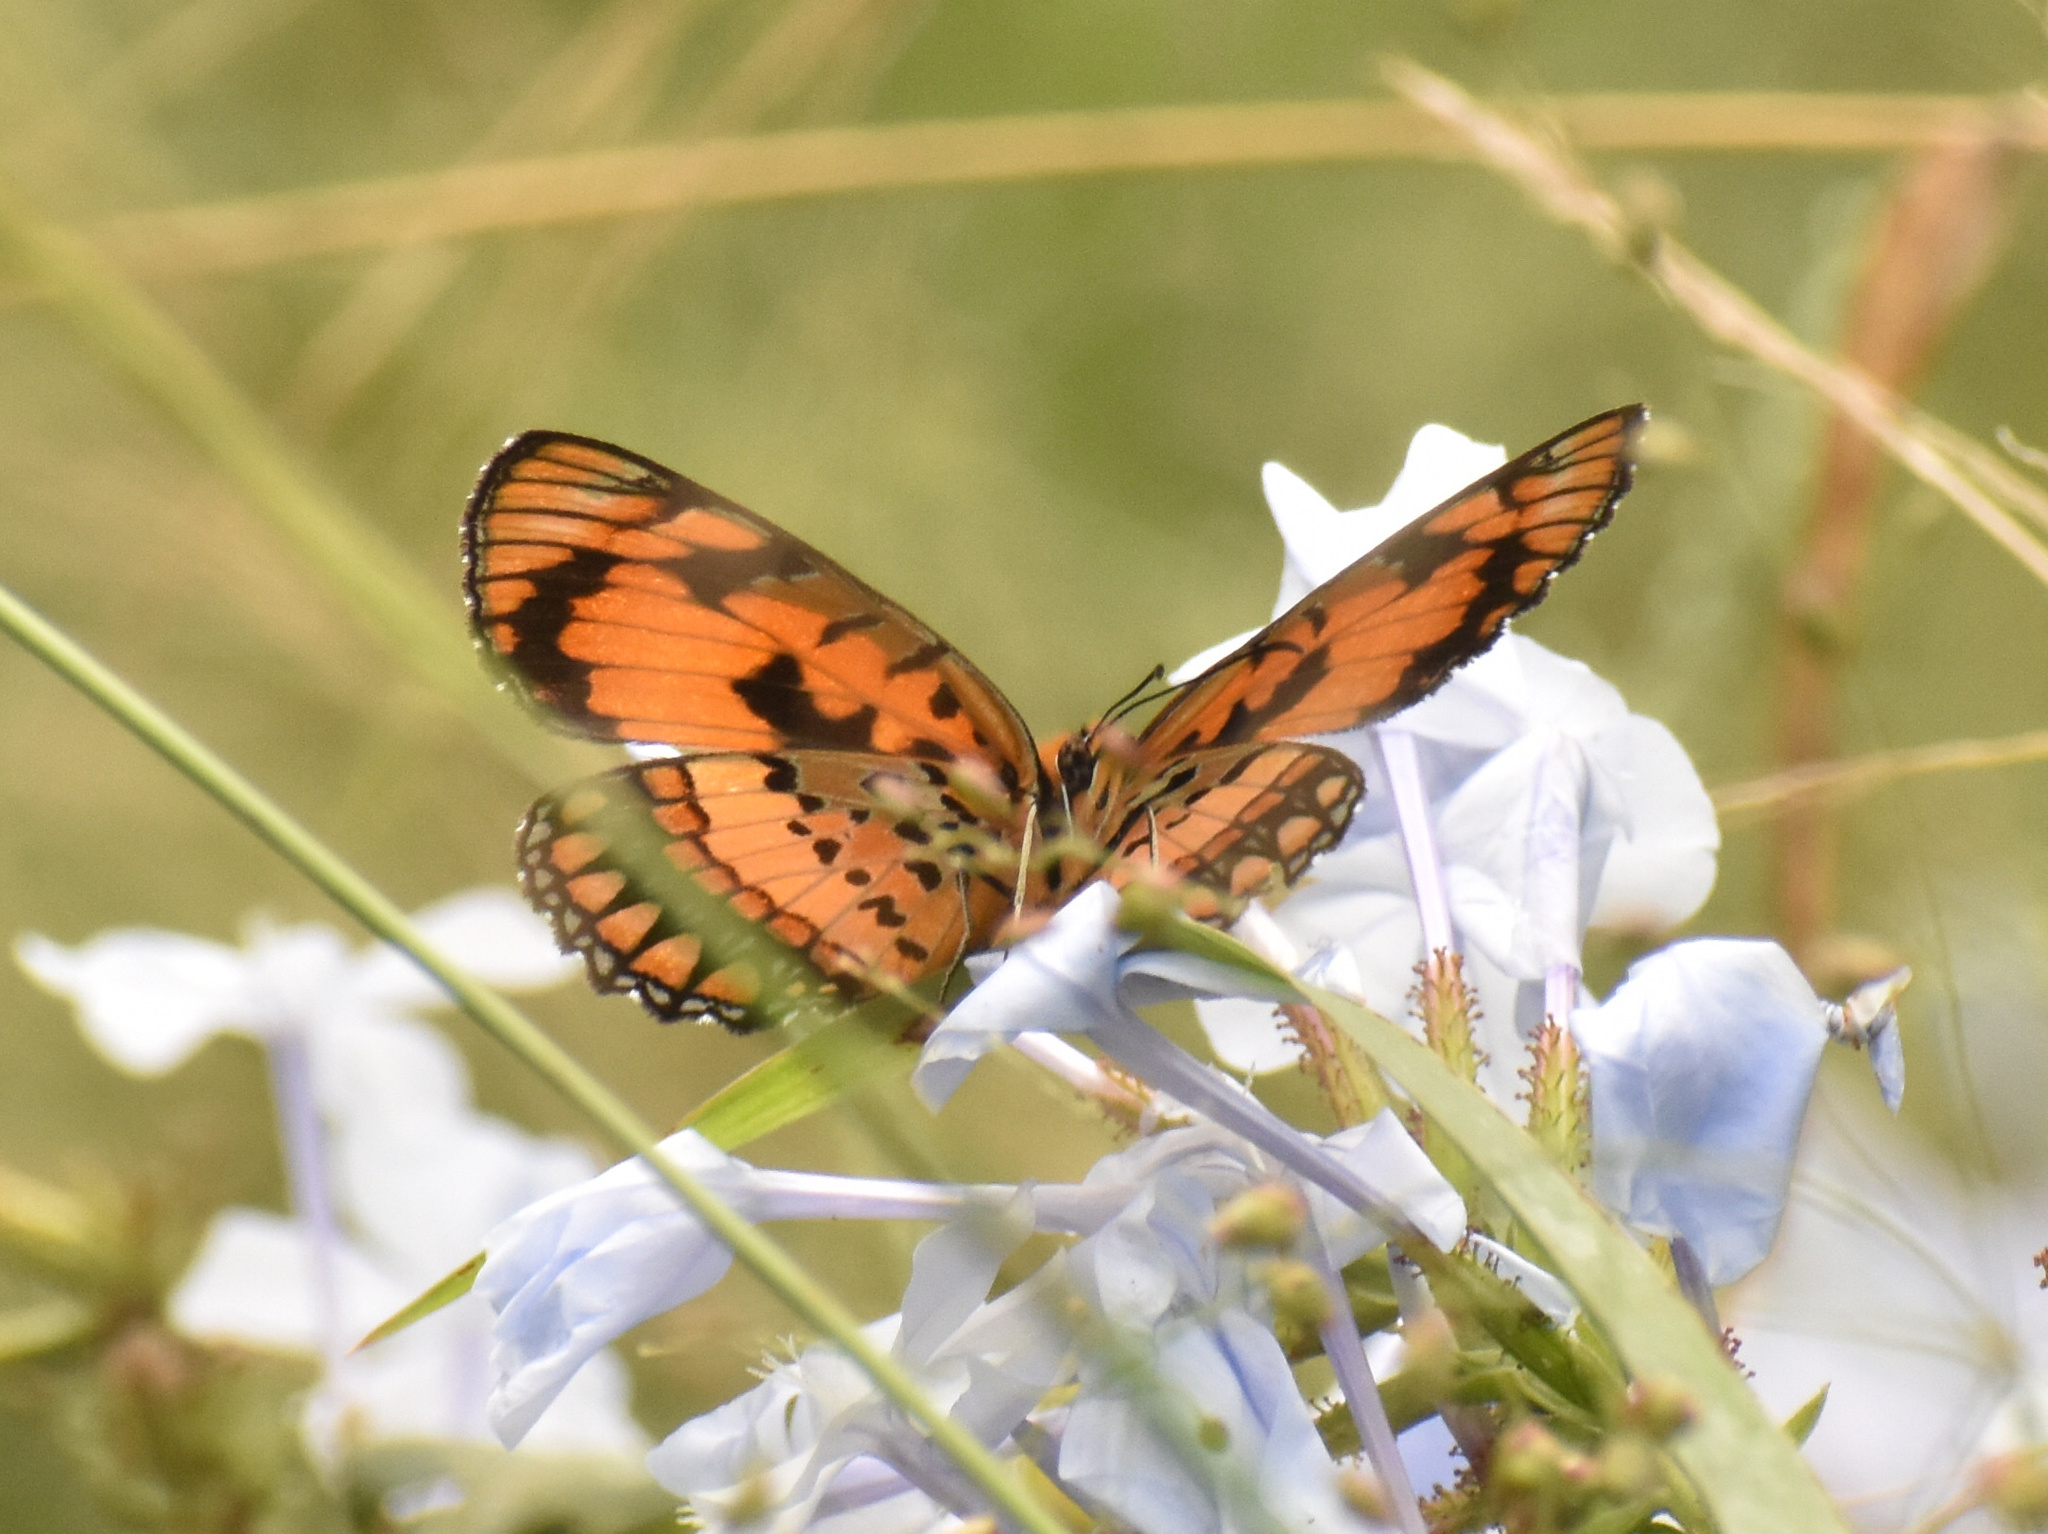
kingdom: Animalia
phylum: Arthropoda
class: Insecta
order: Lepidoptera
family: Nymphalidae
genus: Byblia
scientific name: Byblia acheloia
